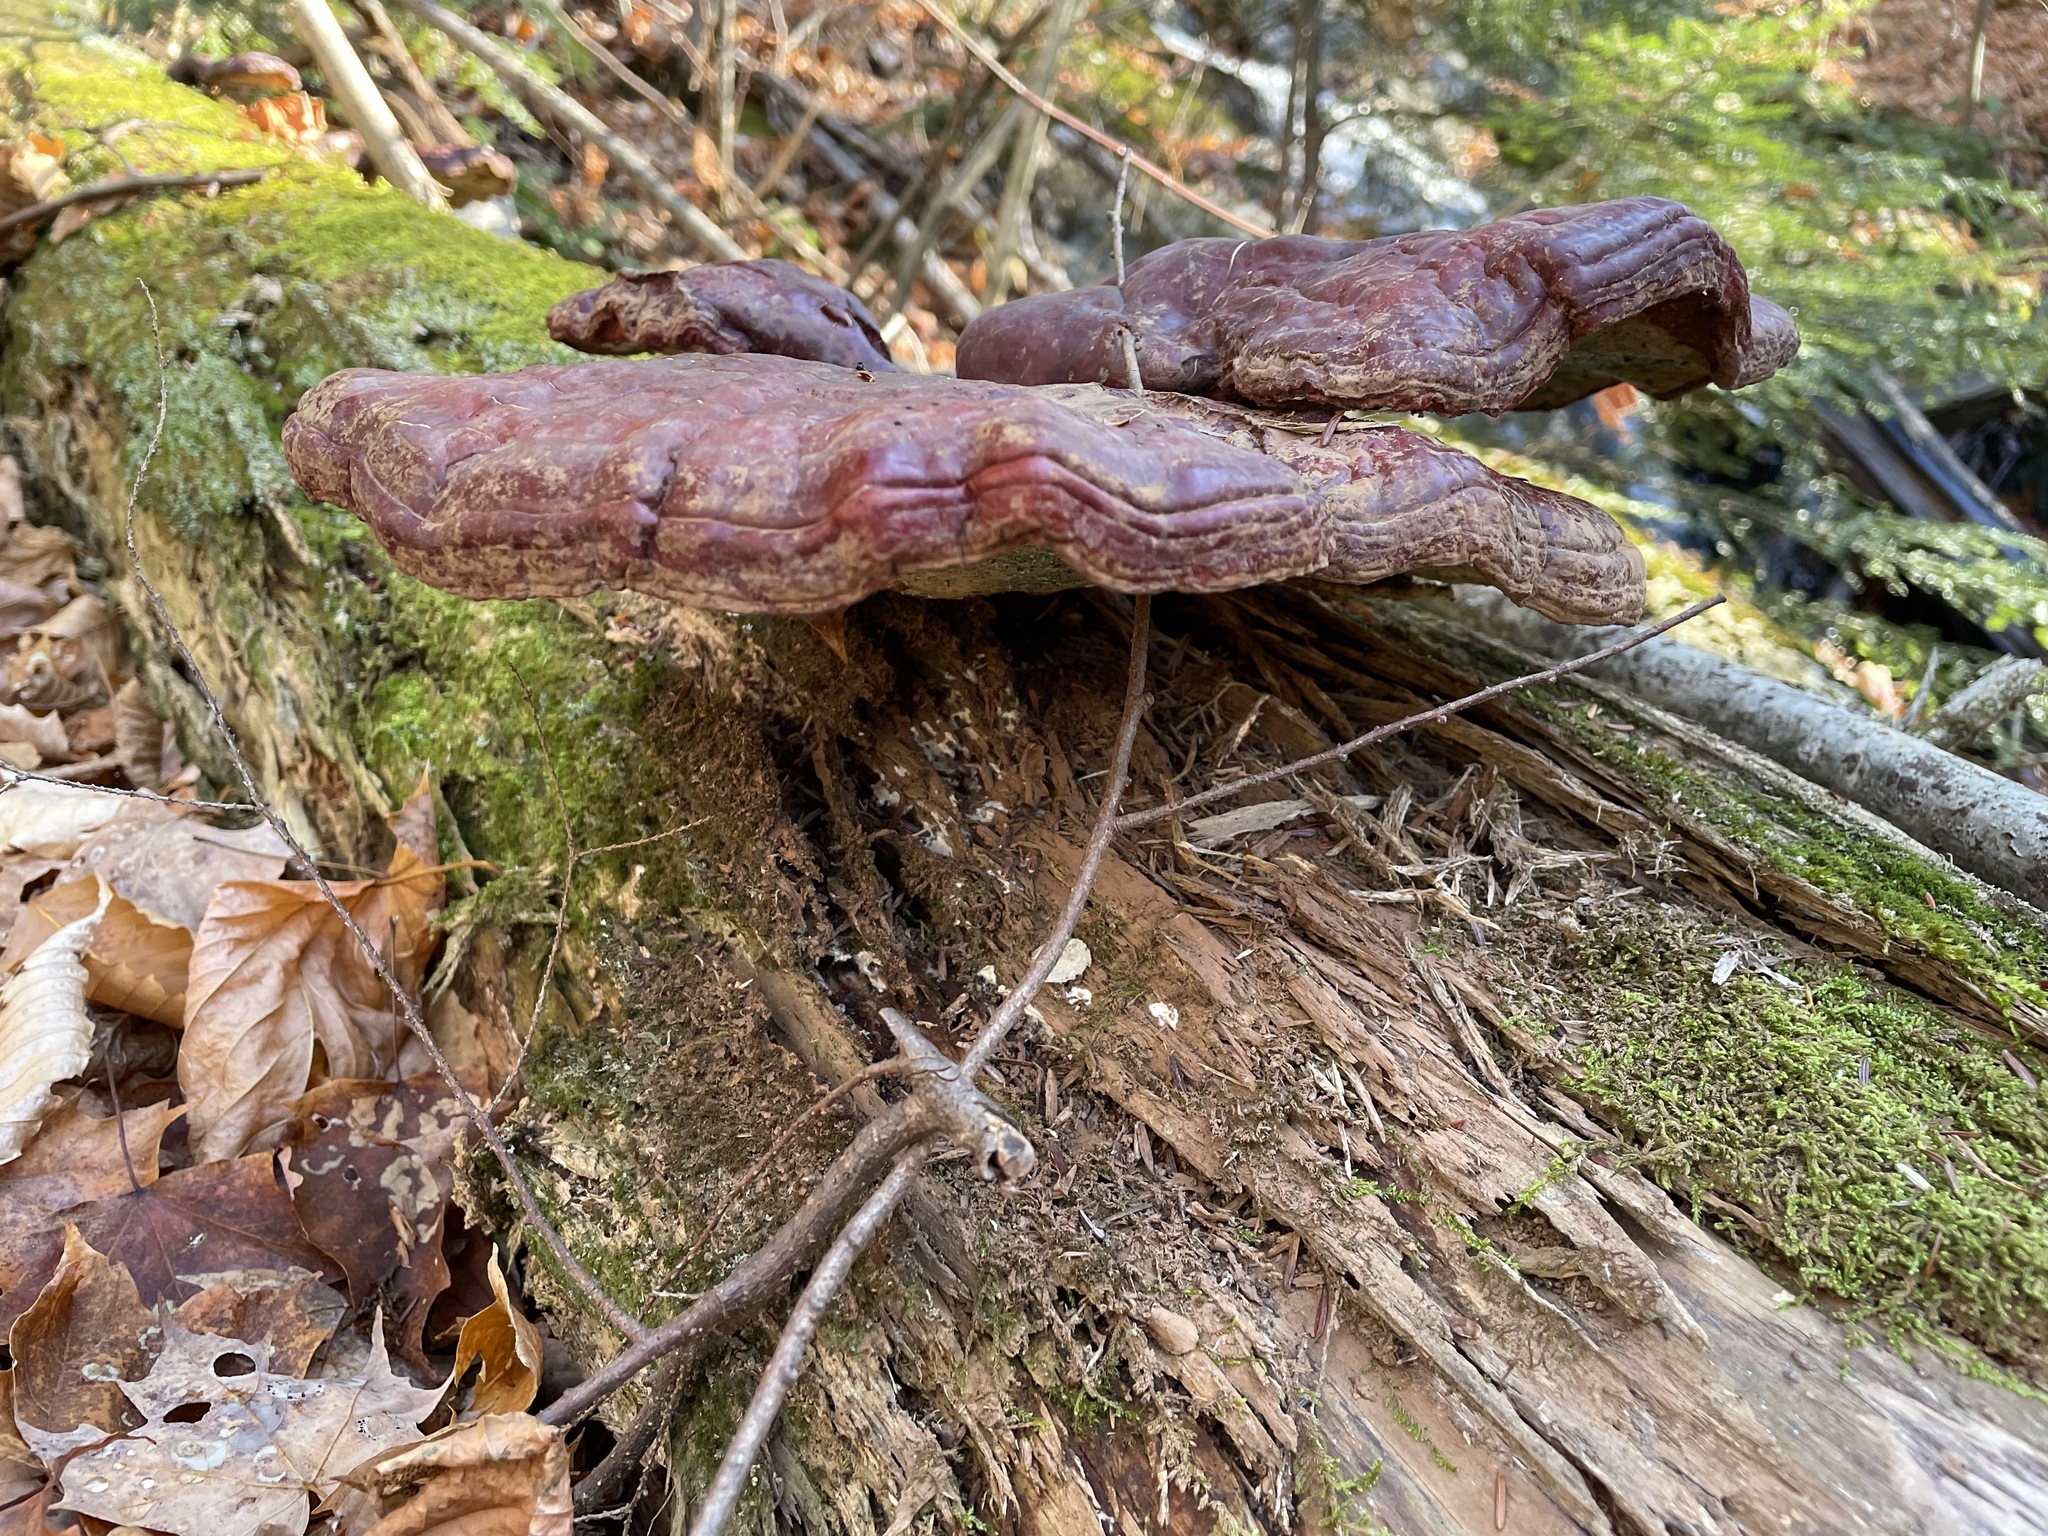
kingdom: Fungi
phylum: Basidiomycota
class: Agaricomycetes
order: Polyporales
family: Polyporaceae
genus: Ganoderma
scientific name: Ganoderma tsugae
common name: Hemlock varnish shelf
